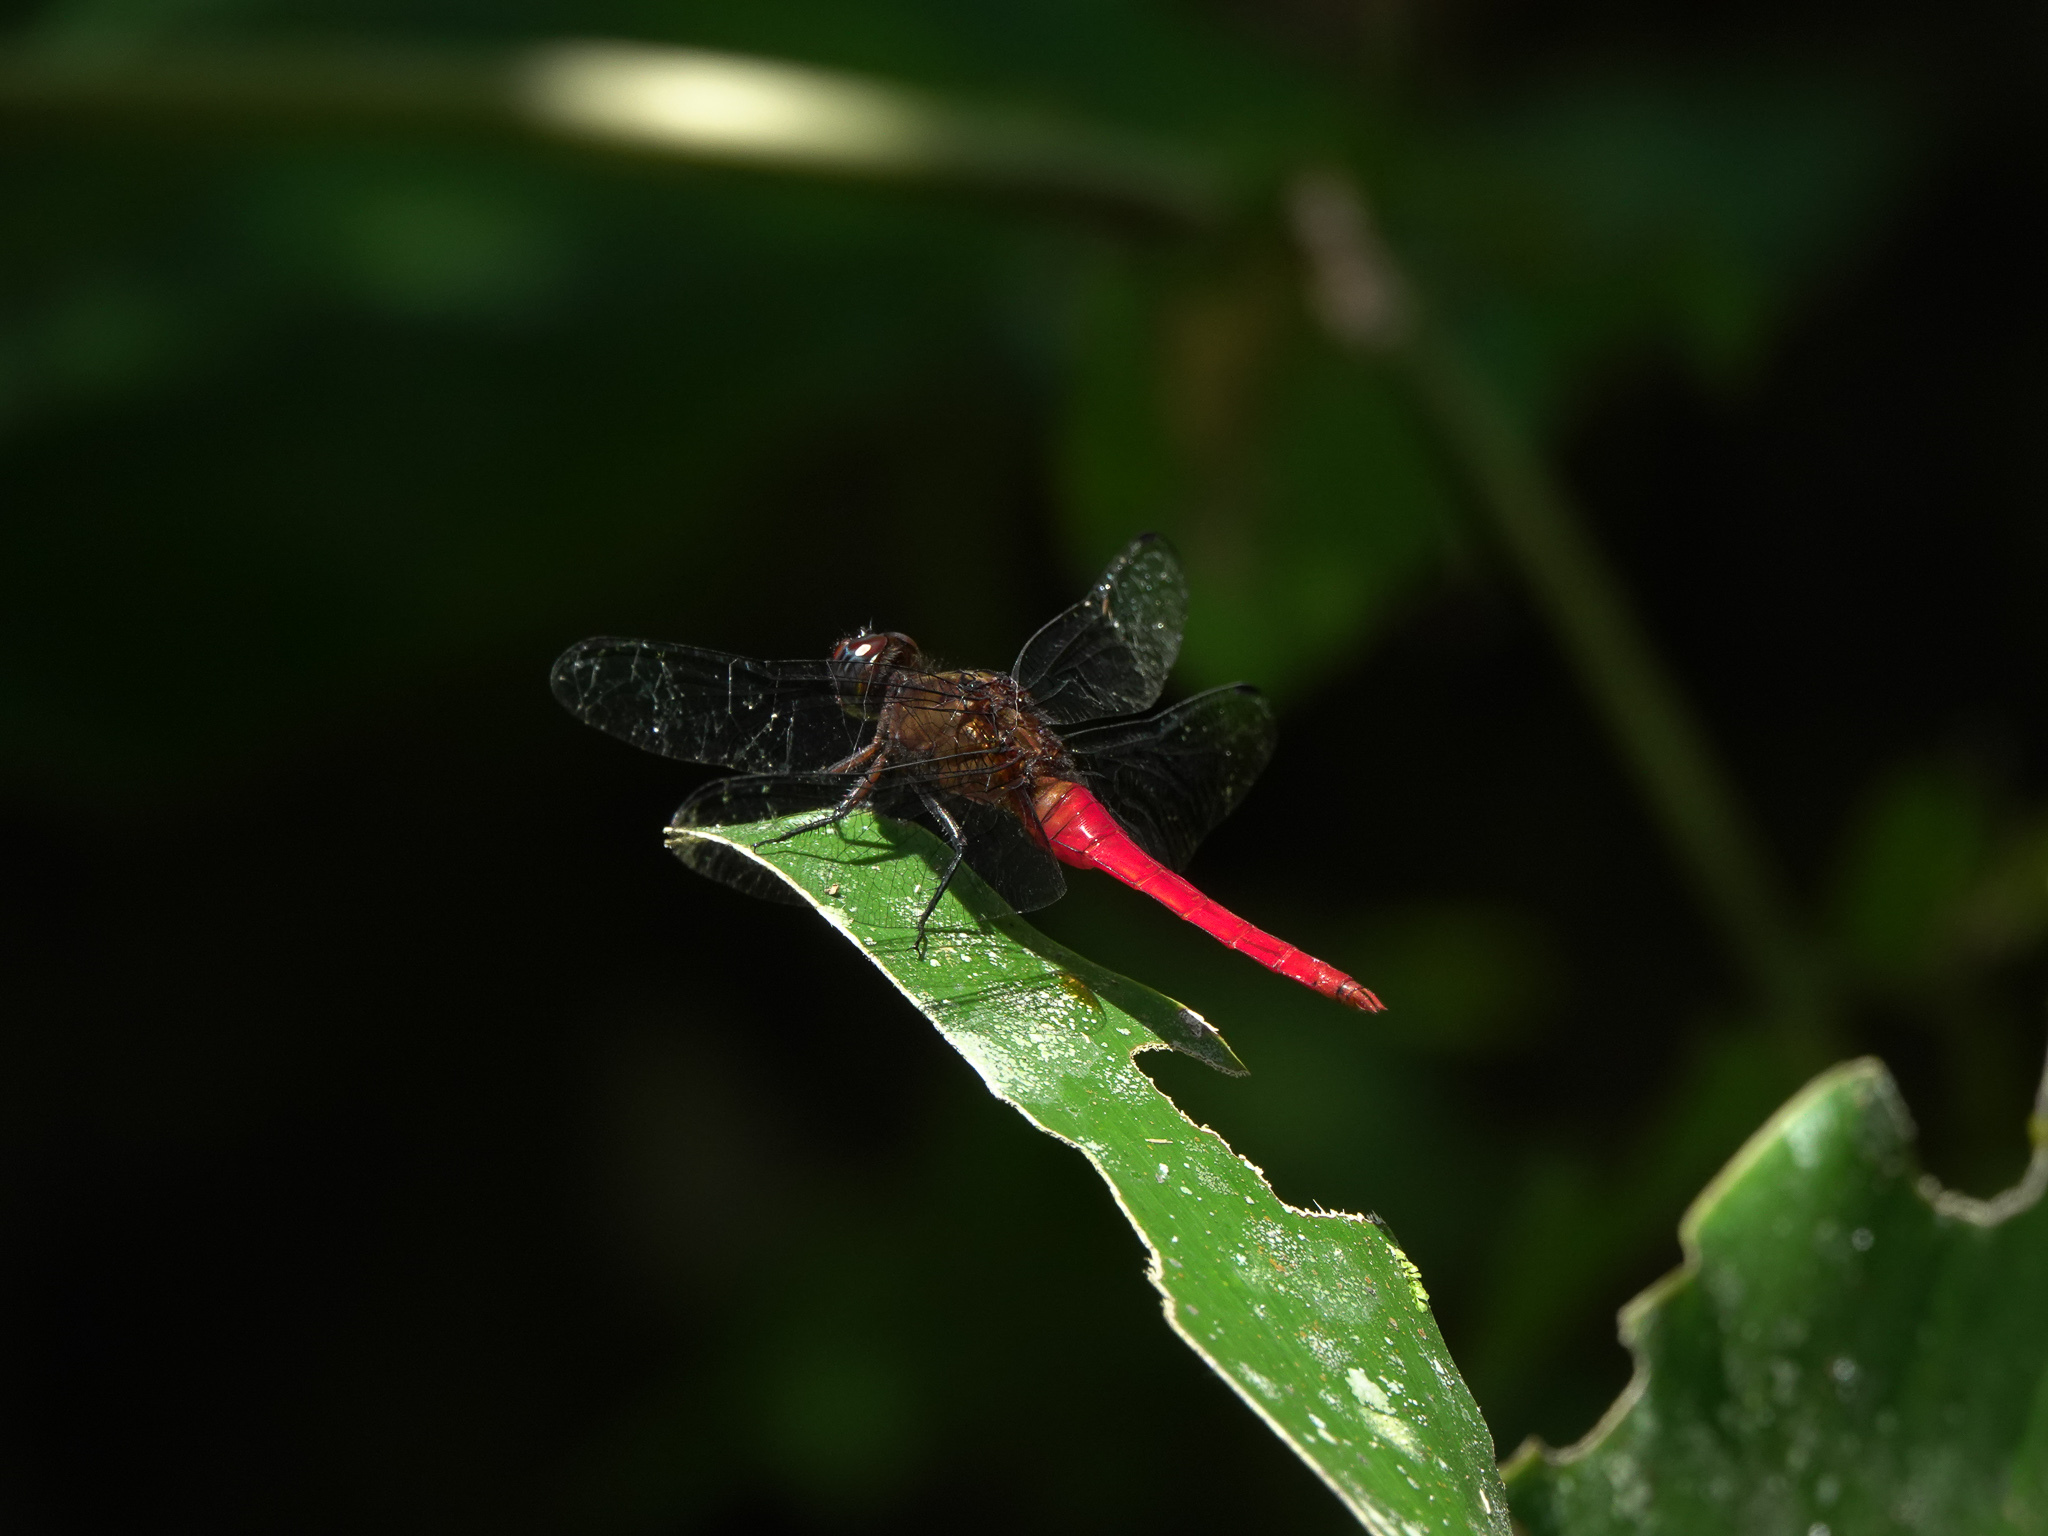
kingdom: Animalia
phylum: Arthropoda
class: Insecta
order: Odonata
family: Libellulidae
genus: Orthetrum
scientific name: Orthetrum chrysis
